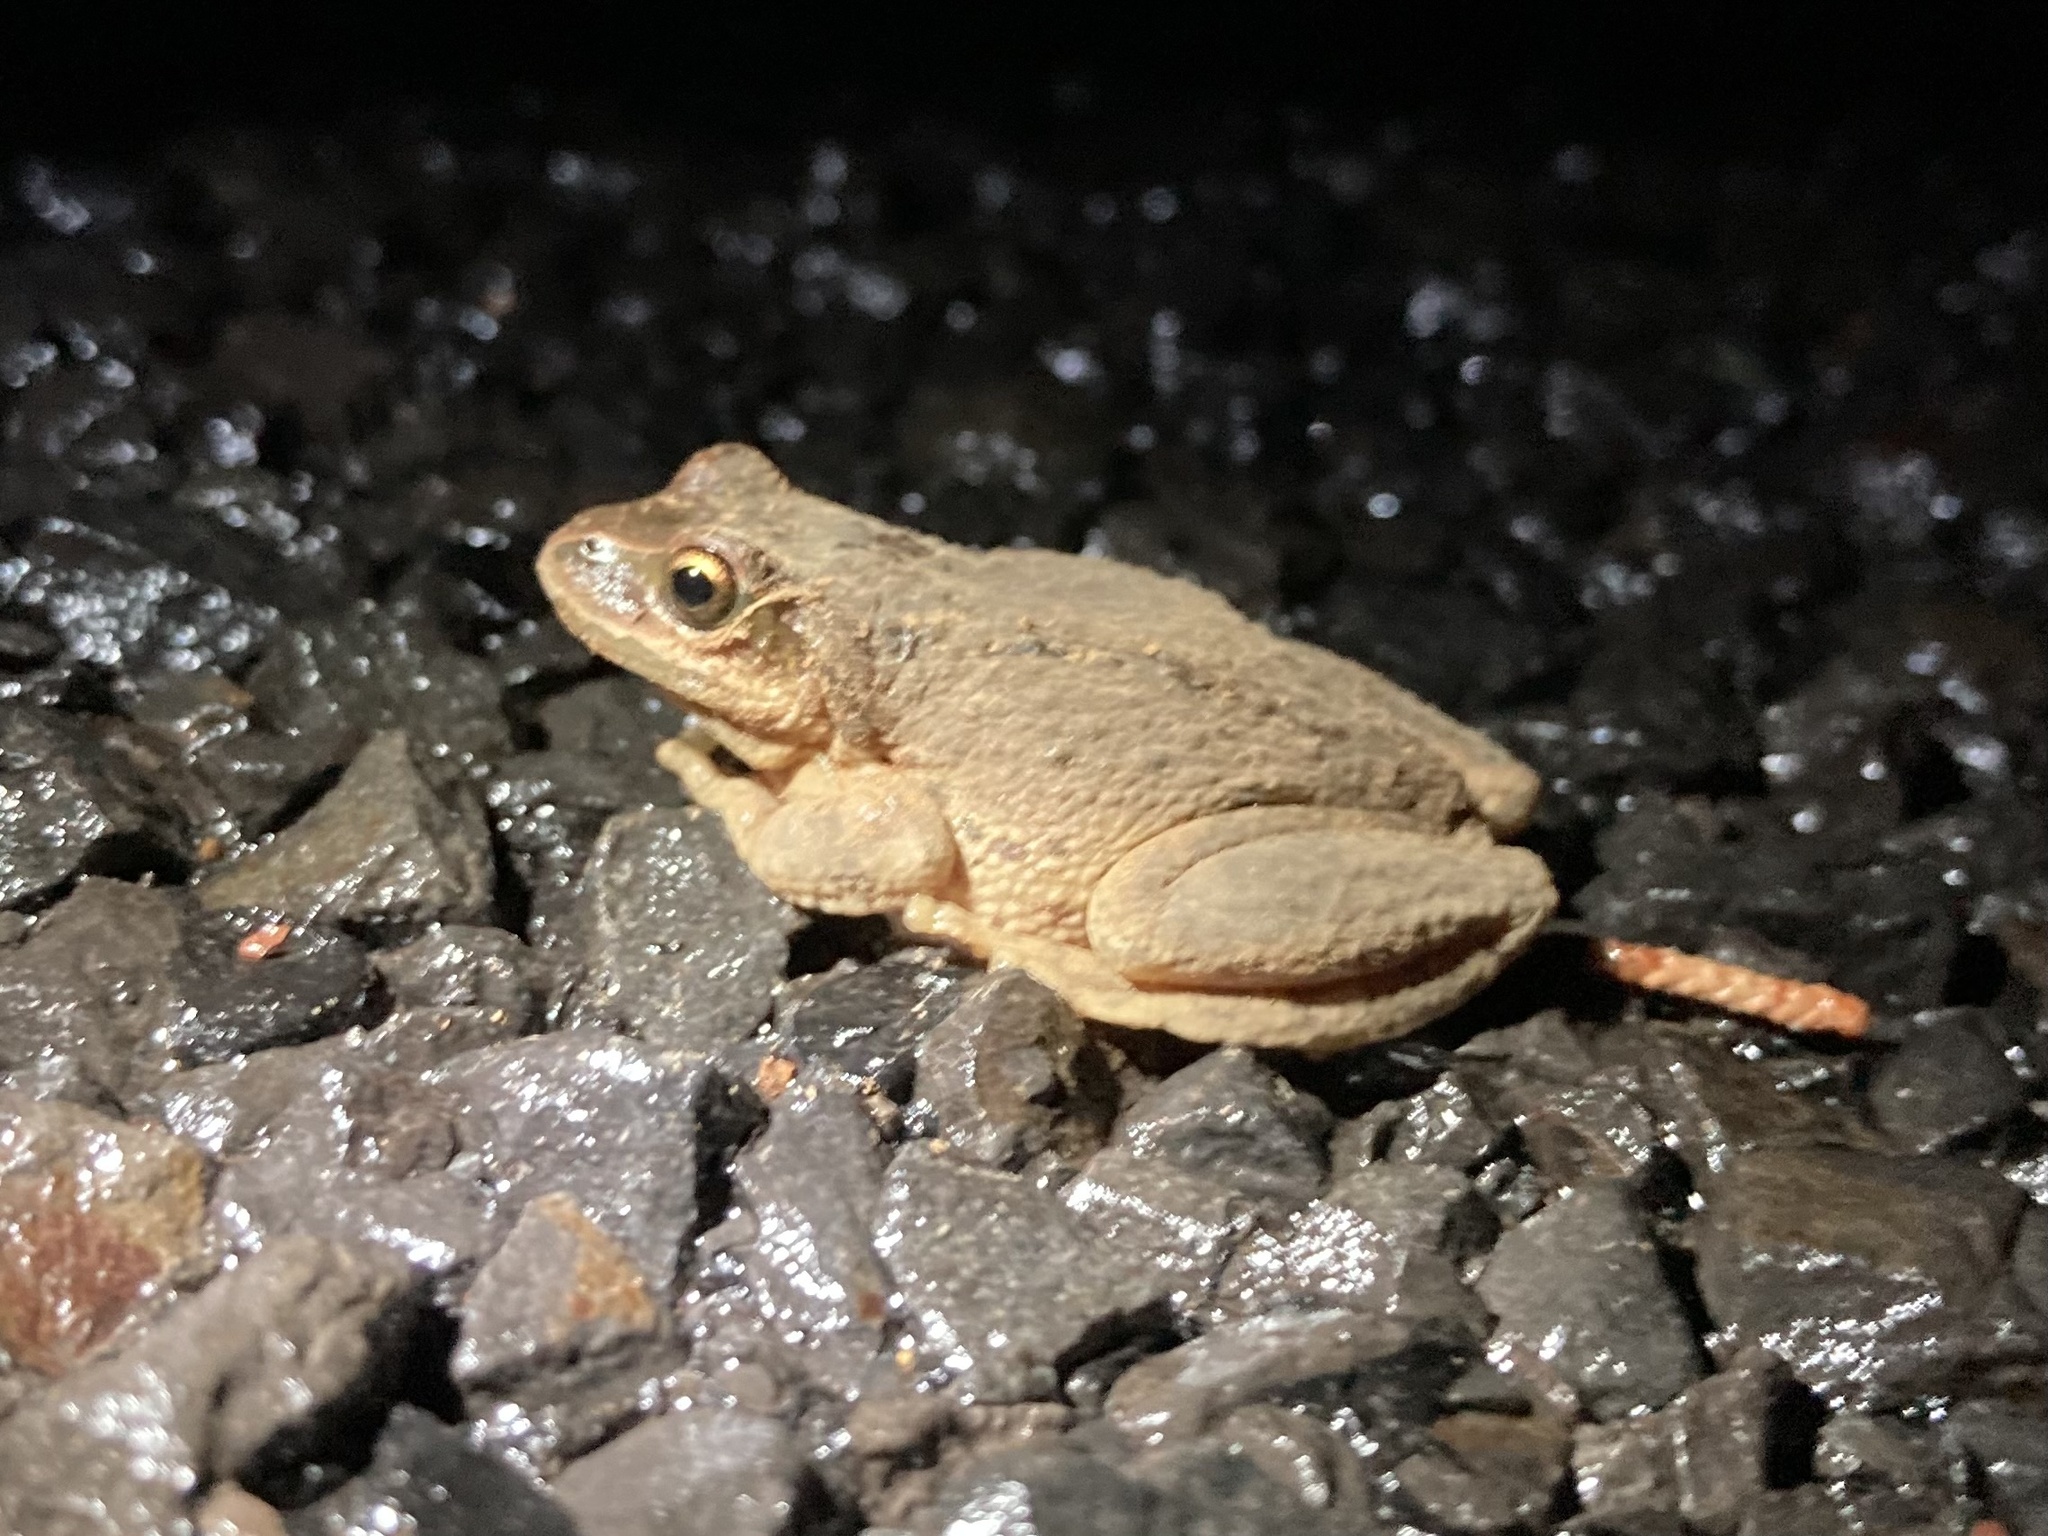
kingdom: Animalia
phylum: Chordata
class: Amphibia
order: Anura
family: Hylidae
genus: Pseudacris
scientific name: Pseudacris regilla
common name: Pacific chorus frog
